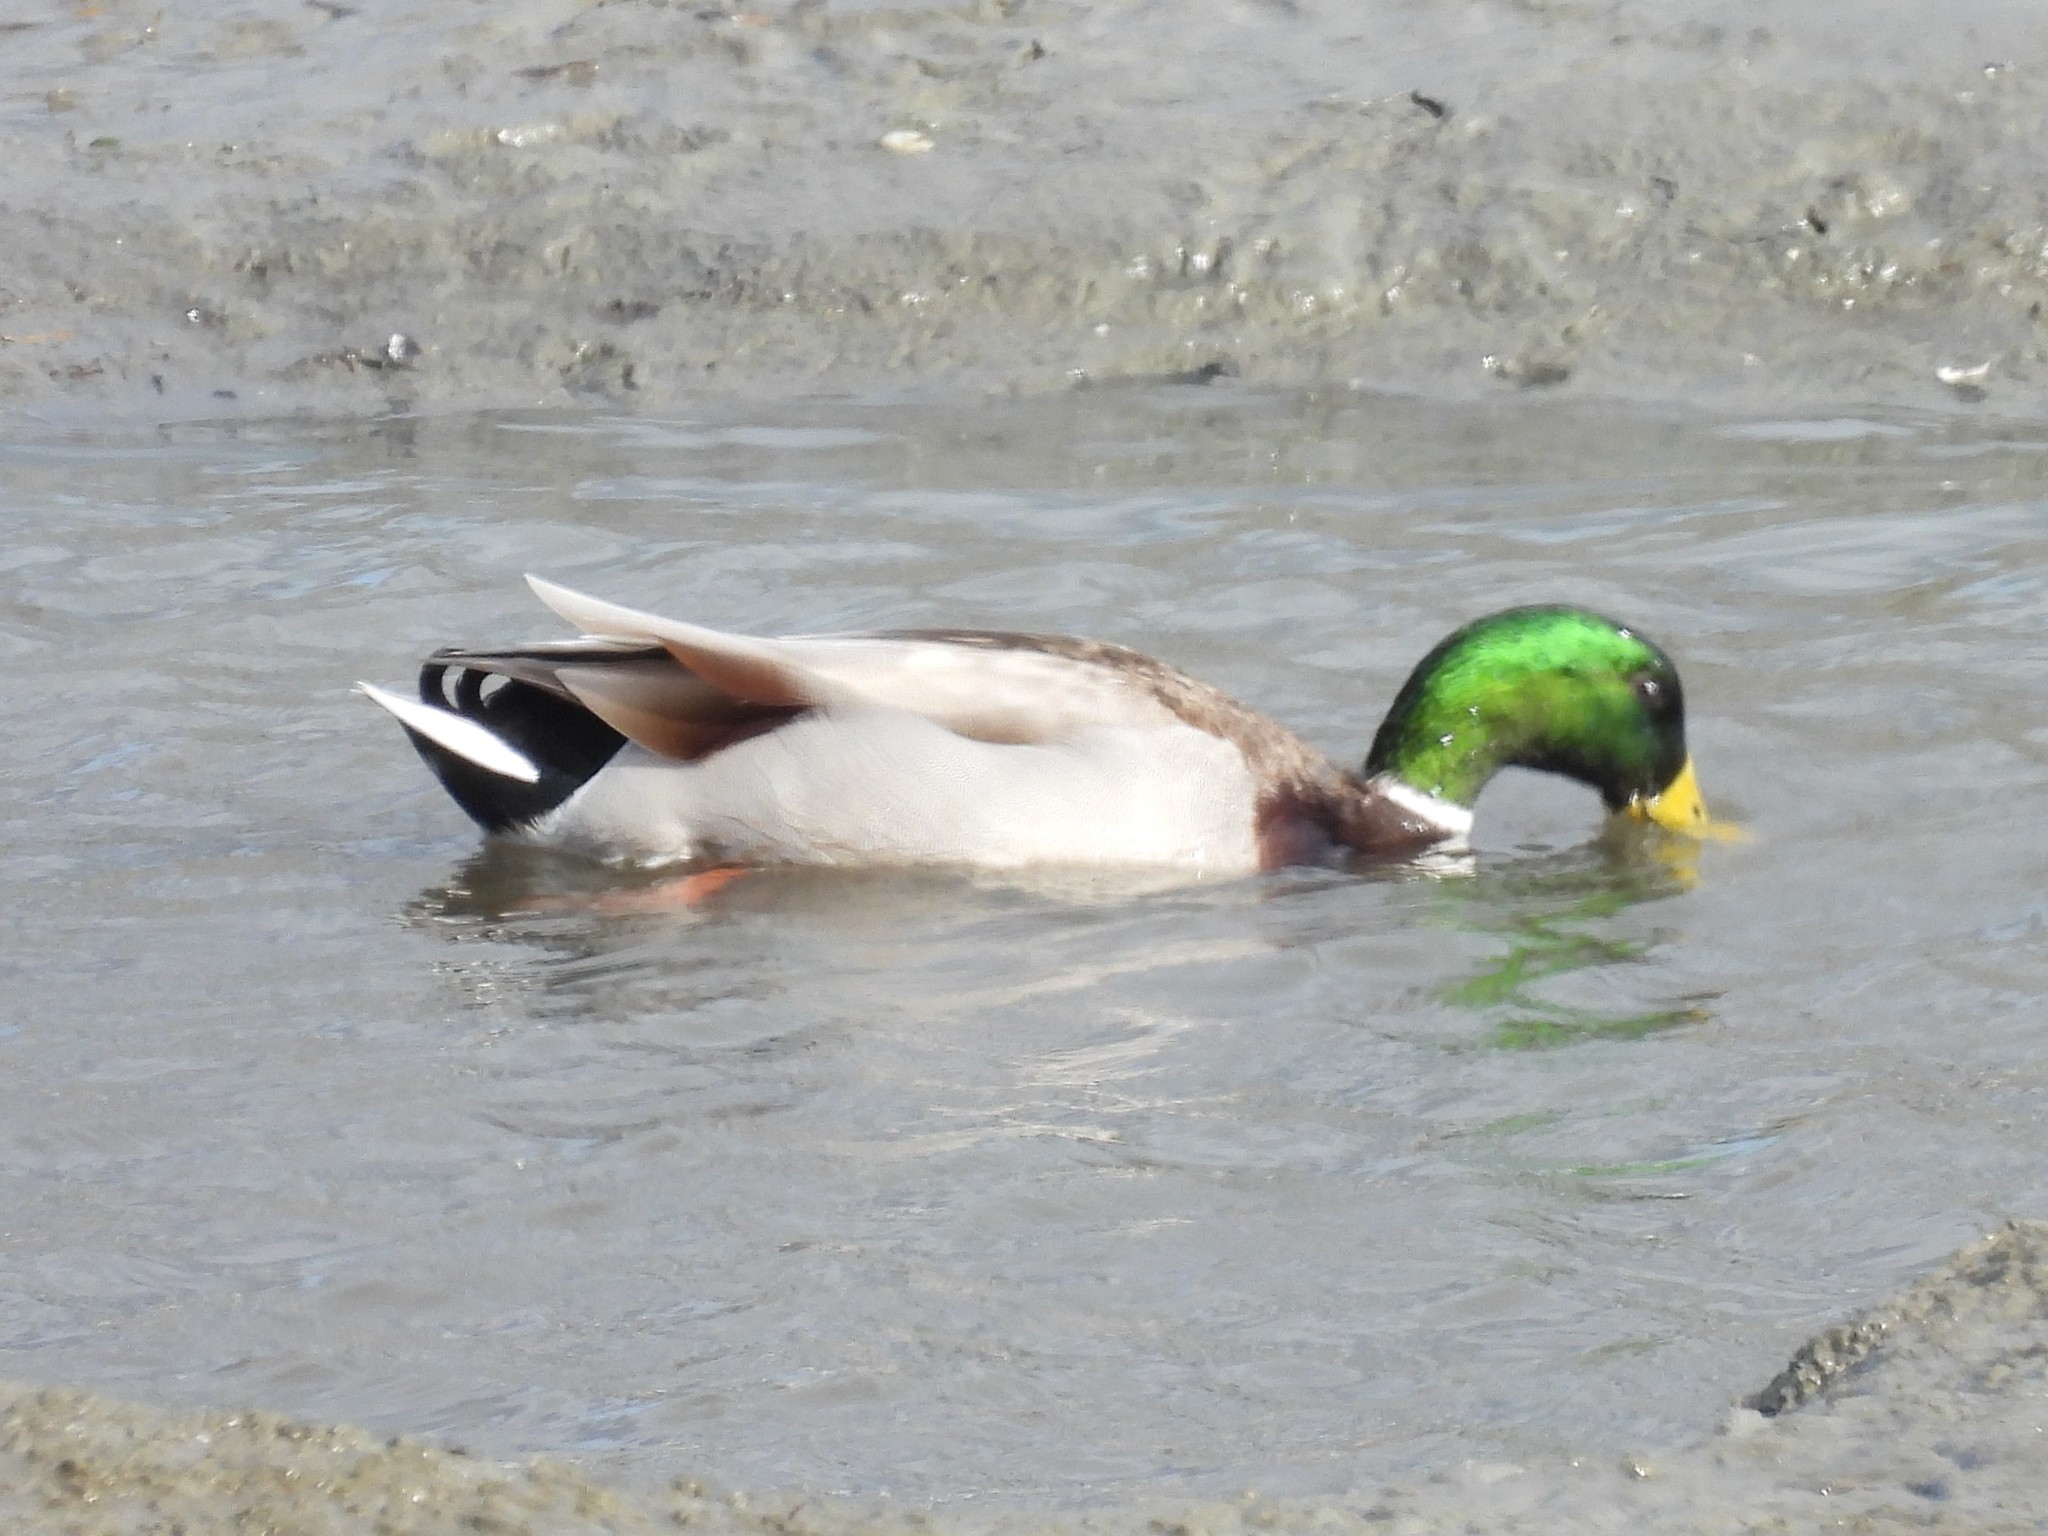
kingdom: Animalia
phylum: Chordata
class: Aves
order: Anseriformes
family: Anatidae
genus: Anas
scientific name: Anas platyrhynchos
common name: Mallard
